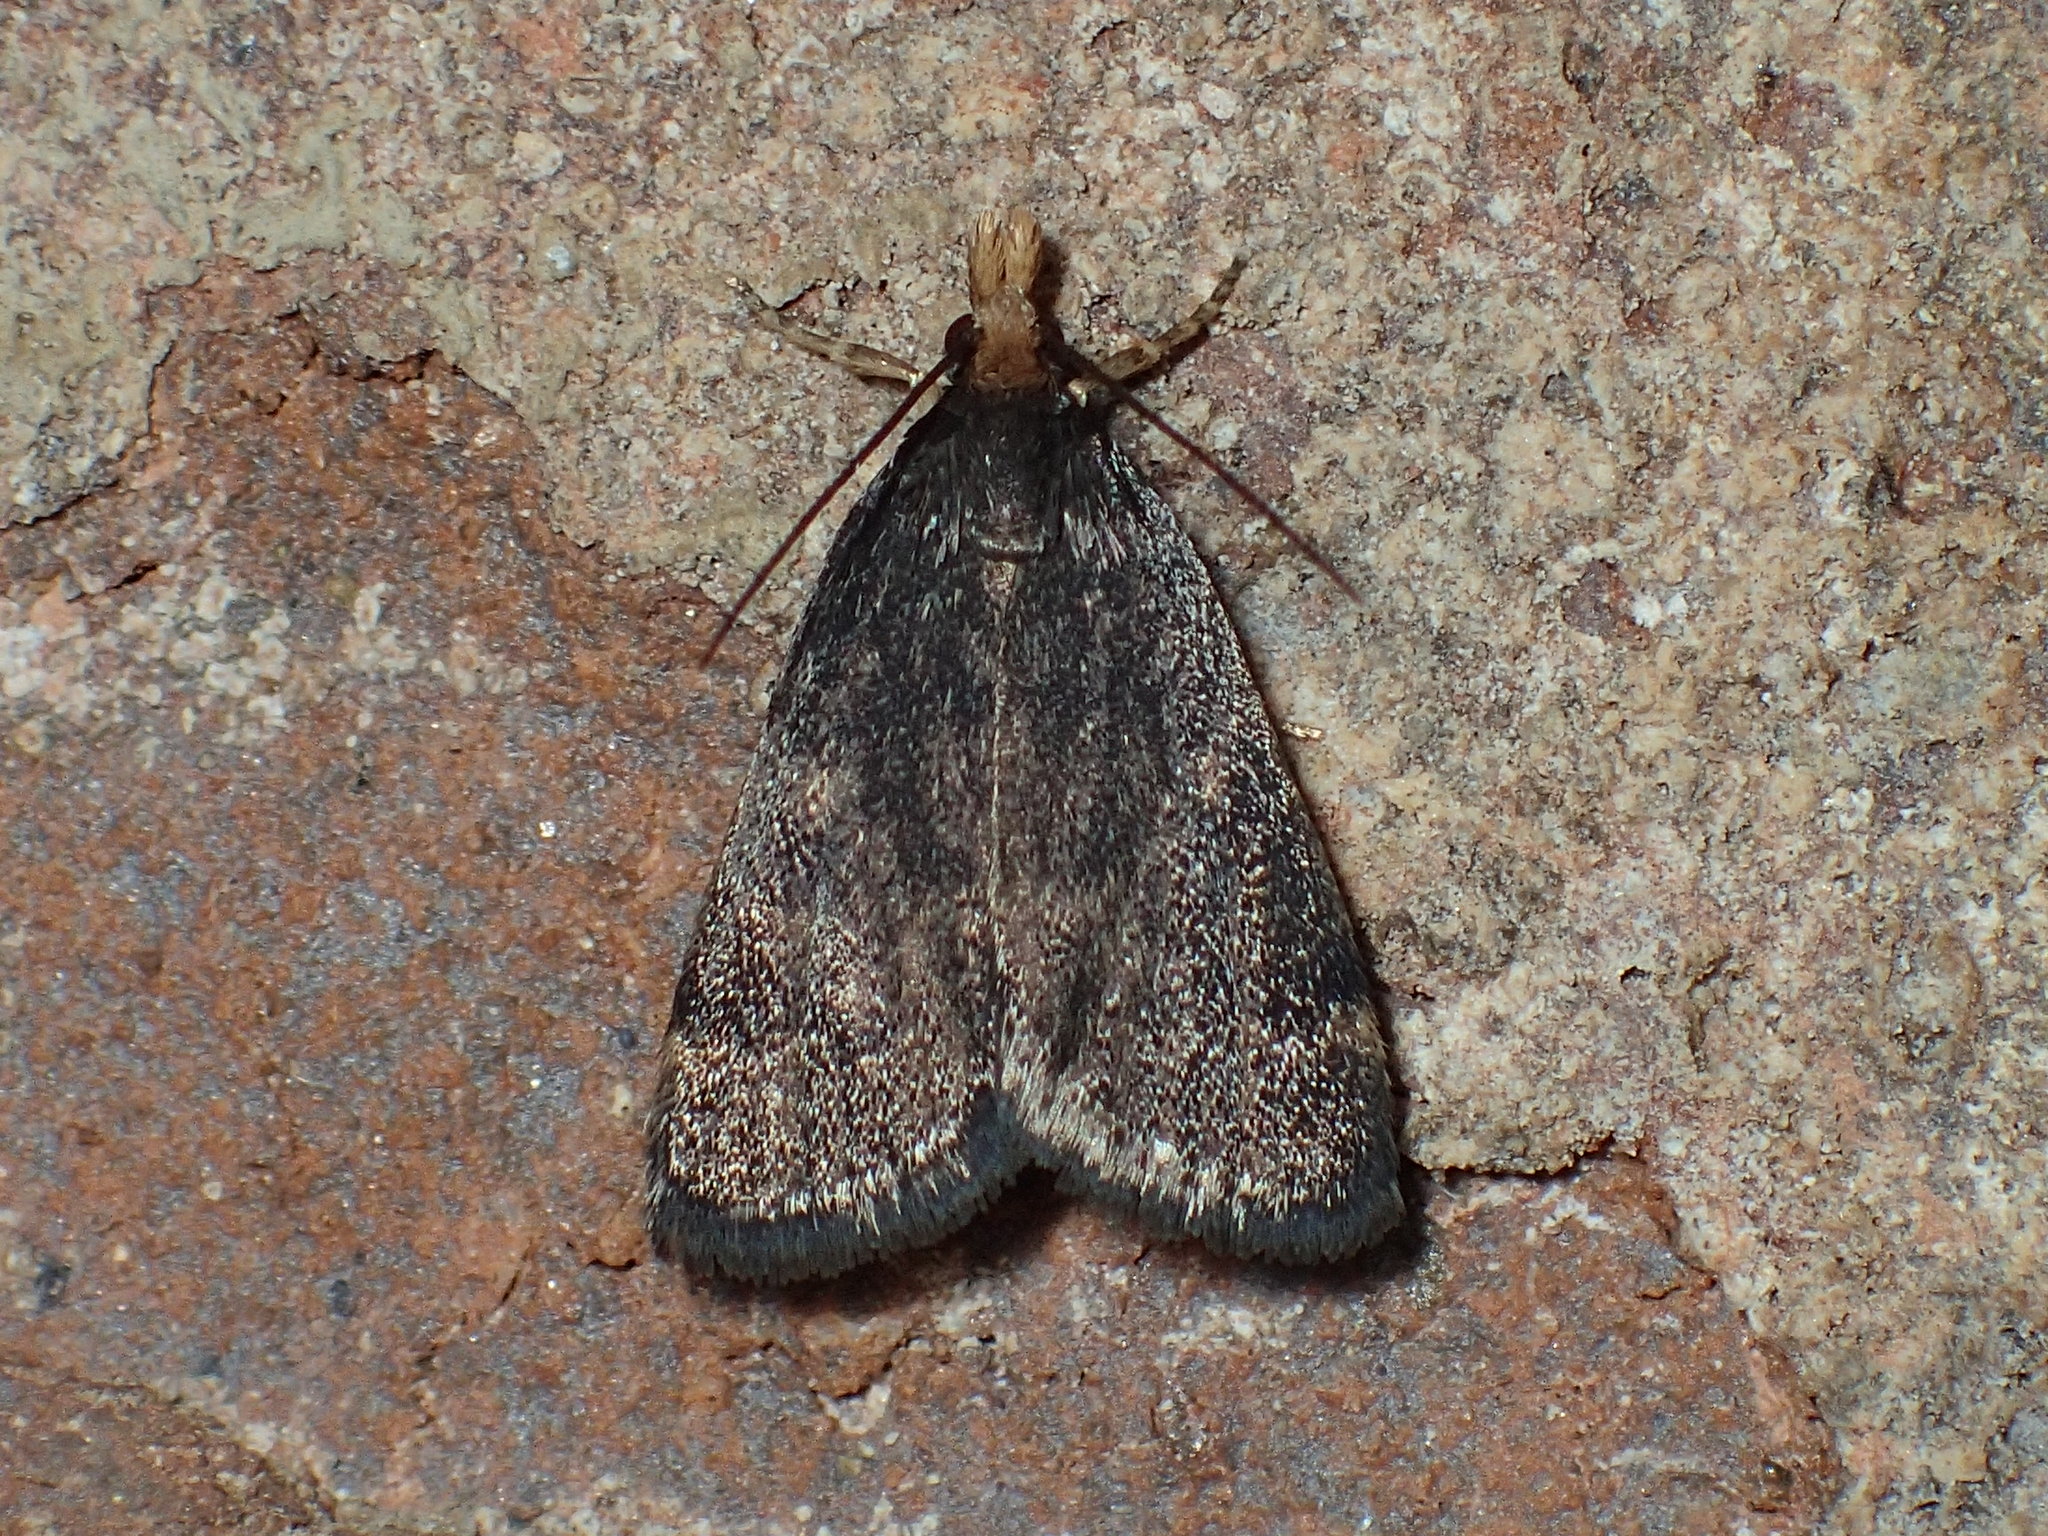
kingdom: Animalia
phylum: Arthropoda
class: Insecta
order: Lepidoptera
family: Crambidae
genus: Pyrausta
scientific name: Pyrausta merrickalis
